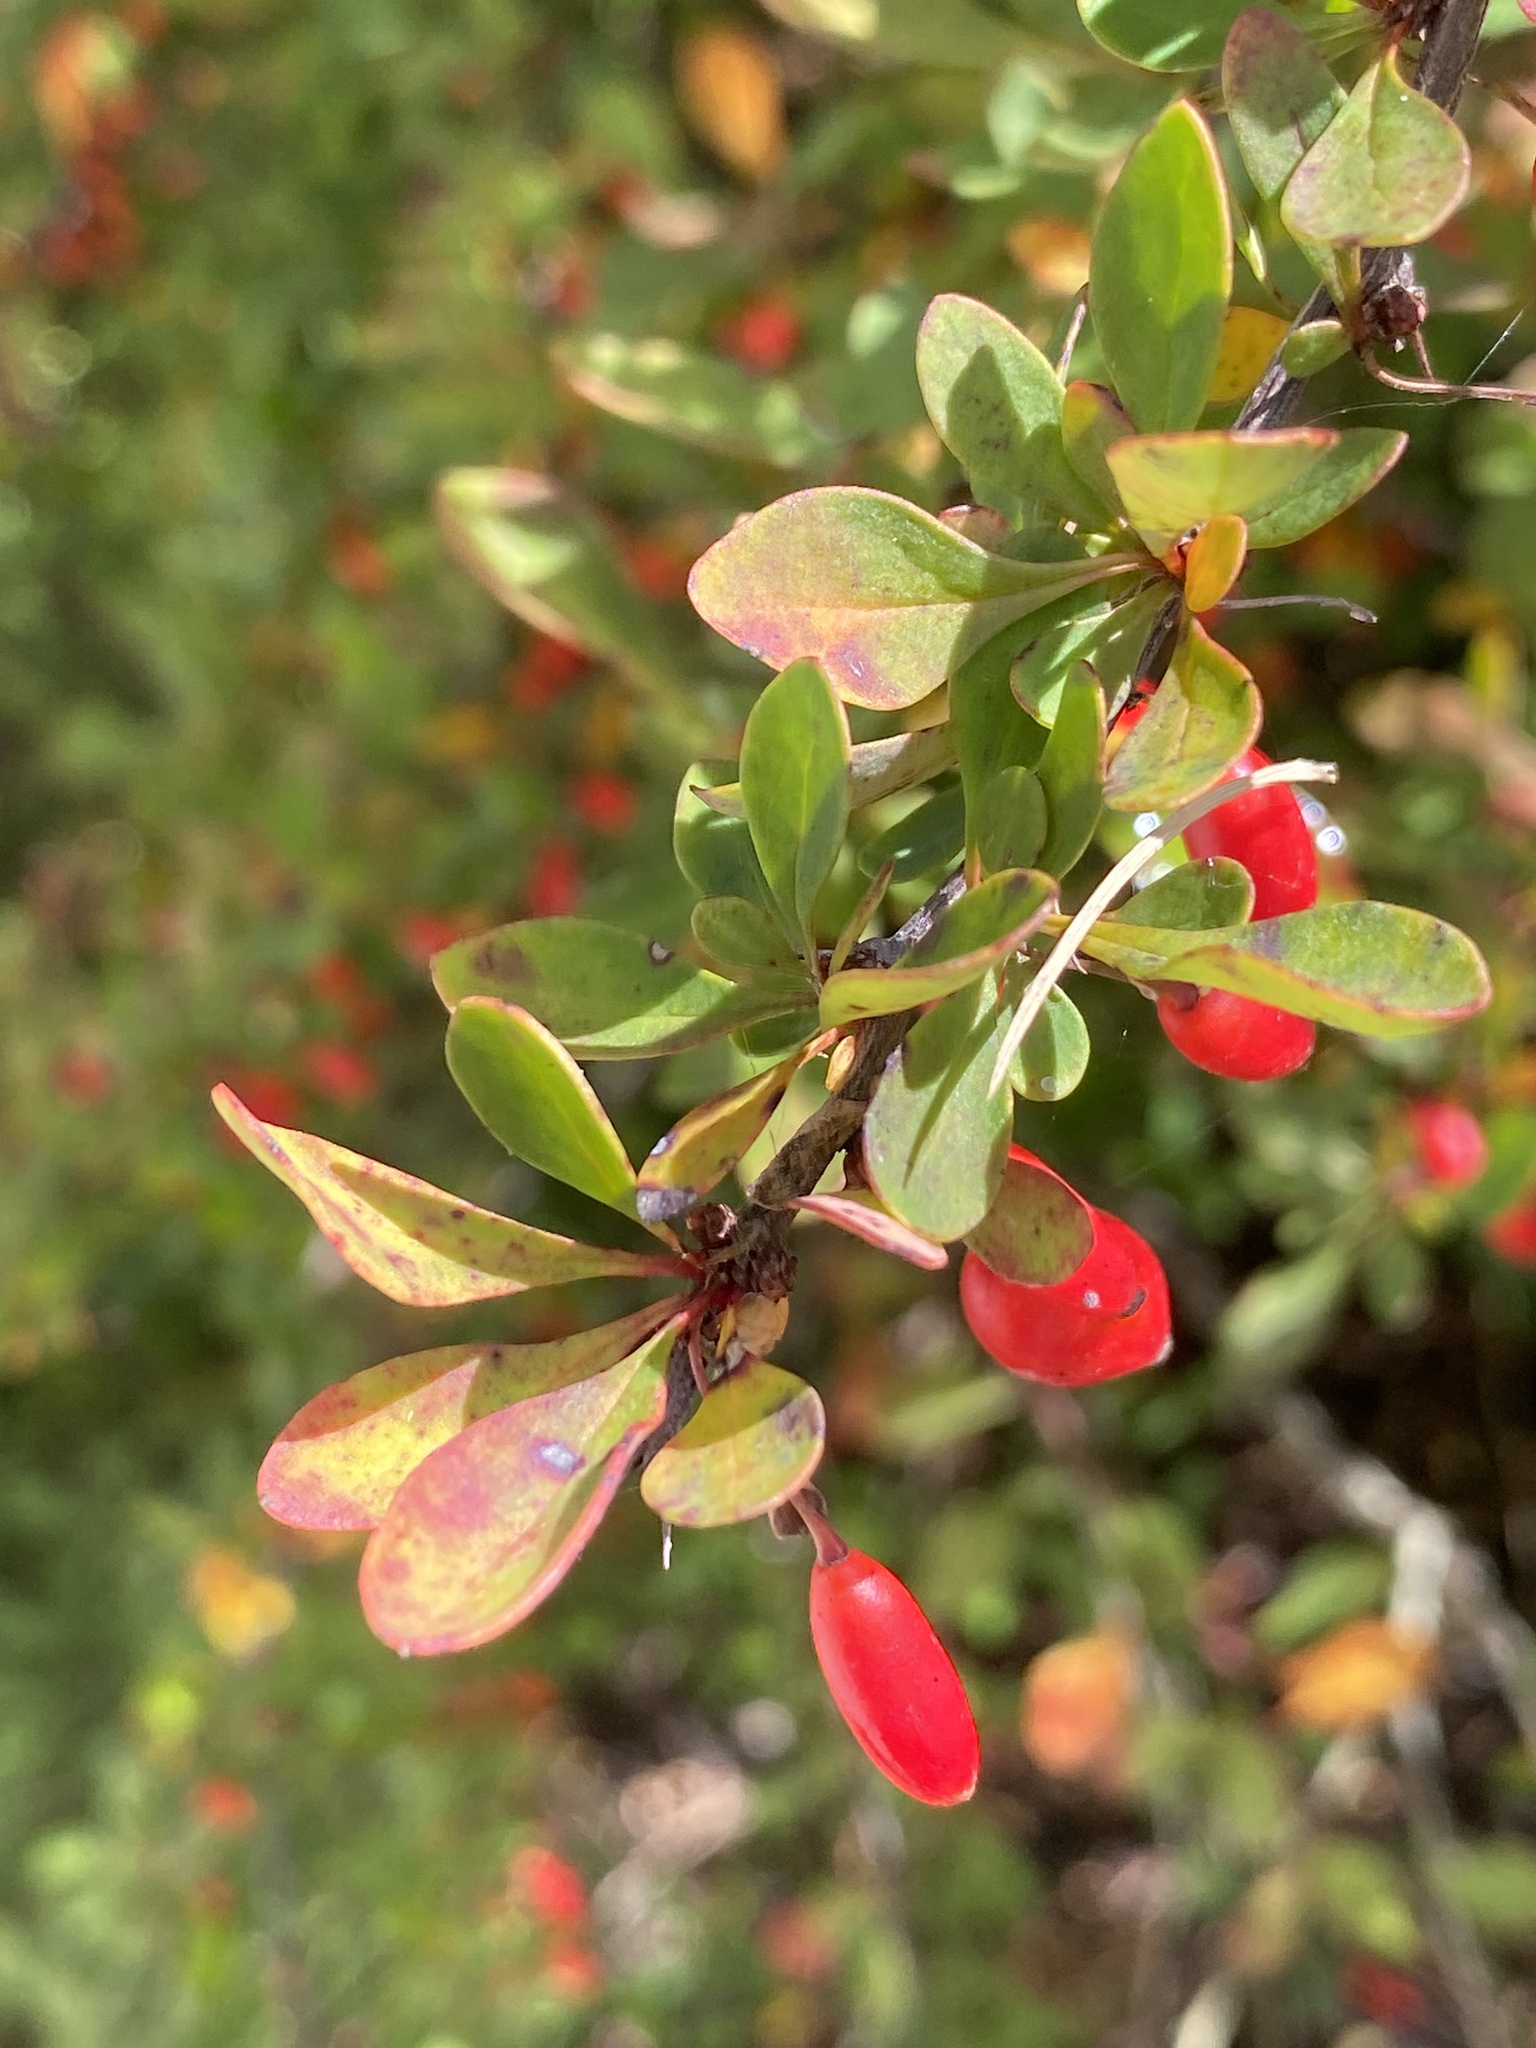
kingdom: Plantae
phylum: Tracheophyta
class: Magnoliopsida
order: Ranunculales
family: Berberidaceae
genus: Berberis
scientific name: Berberis thunbergii
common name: Japanese barberry
